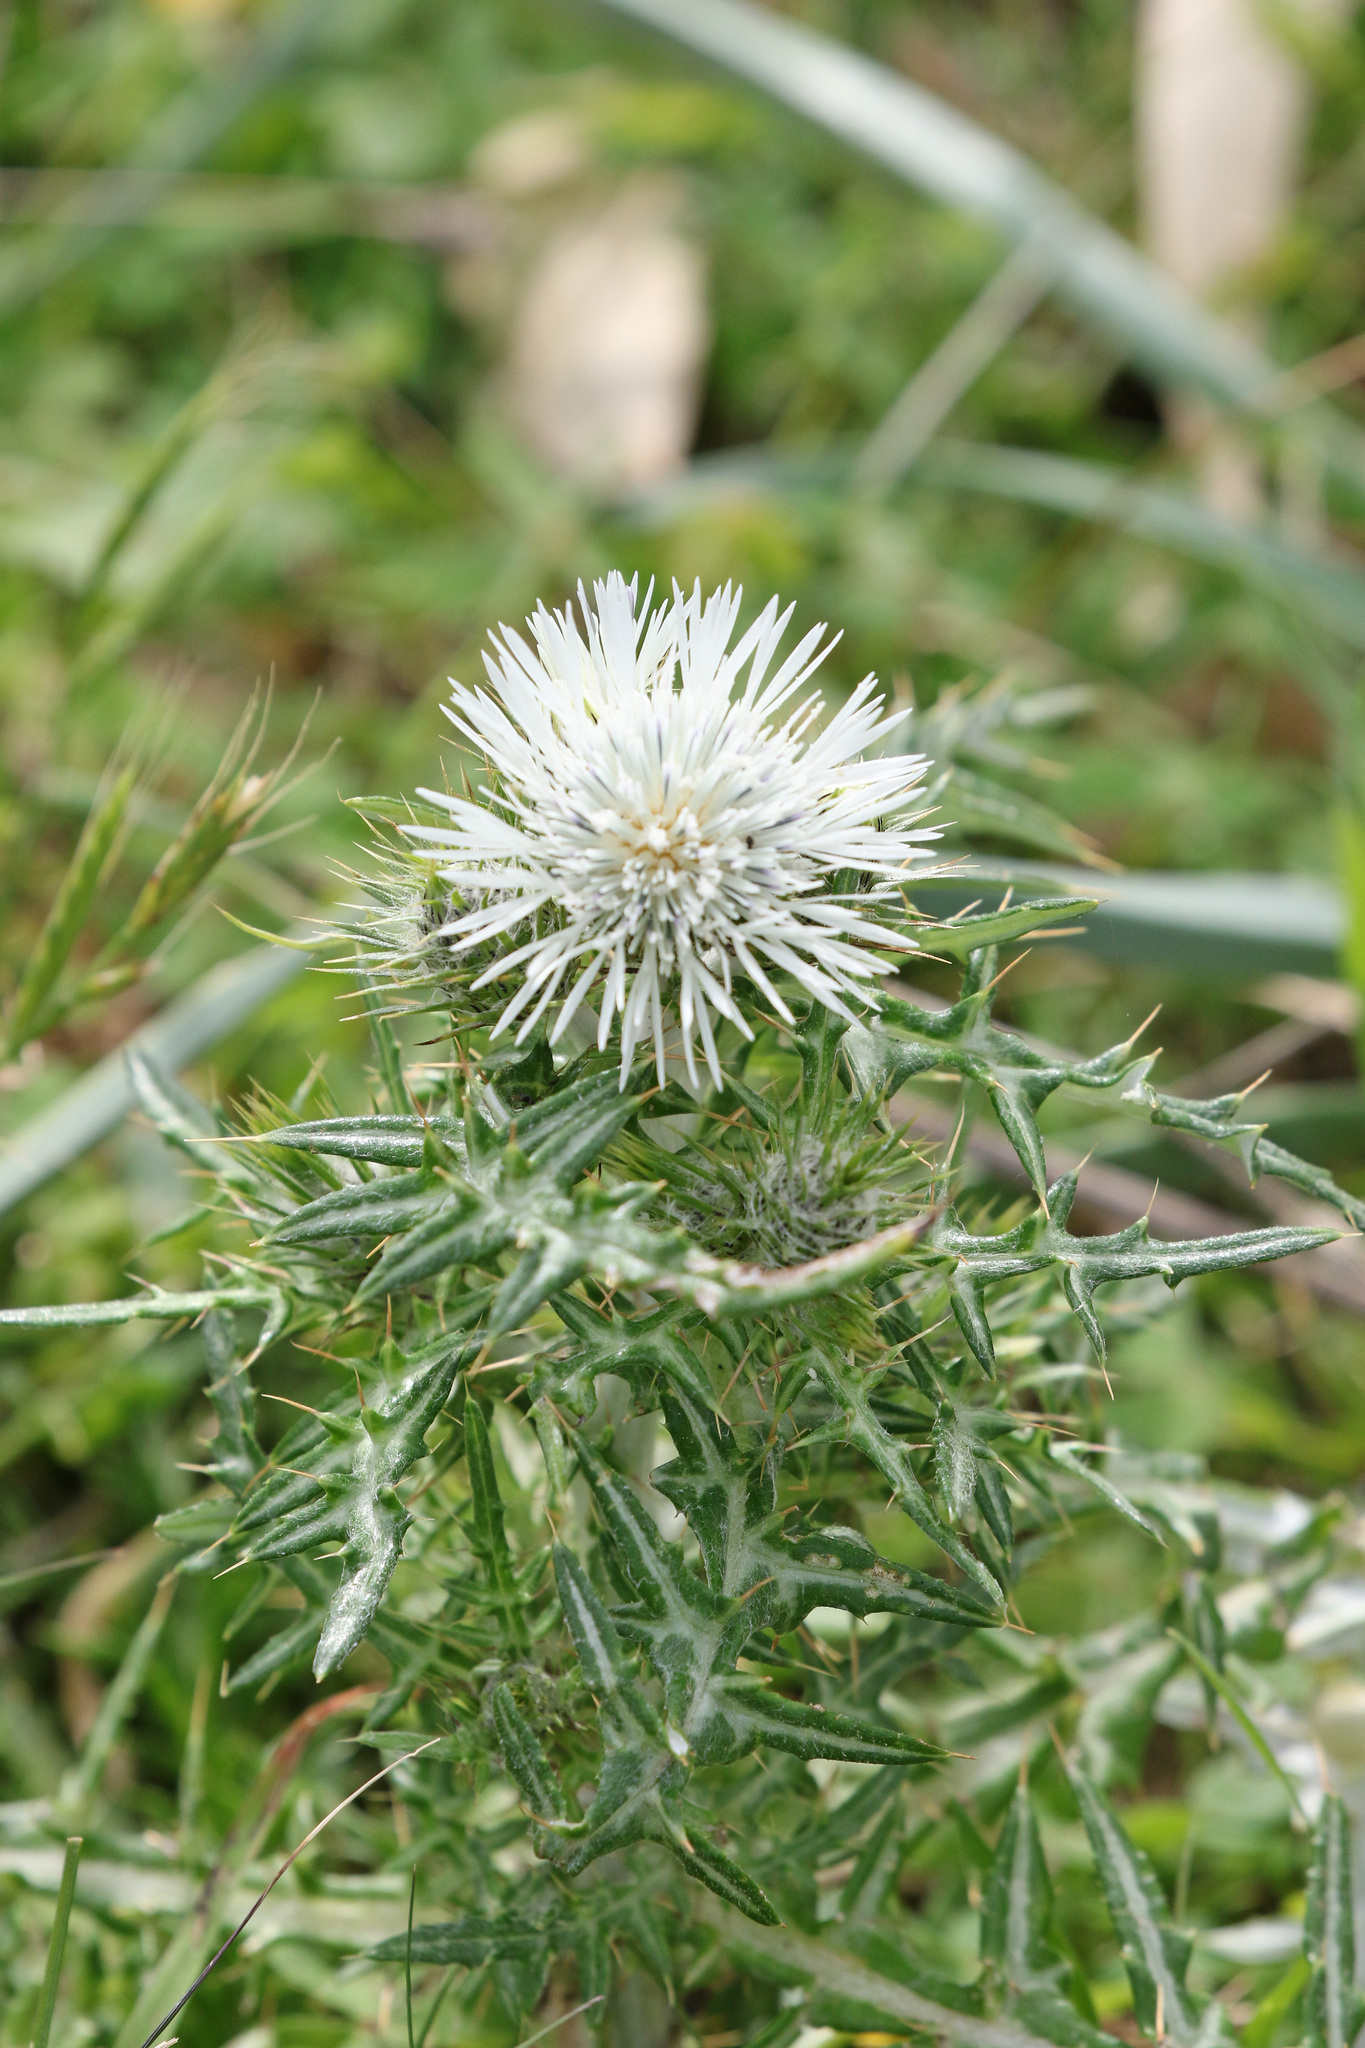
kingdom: Plantae
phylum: Tracheophyta
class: Magnoliopsida
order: Asterales
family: Asteraceae
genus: Galactites
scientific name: Galactites tomentosa
